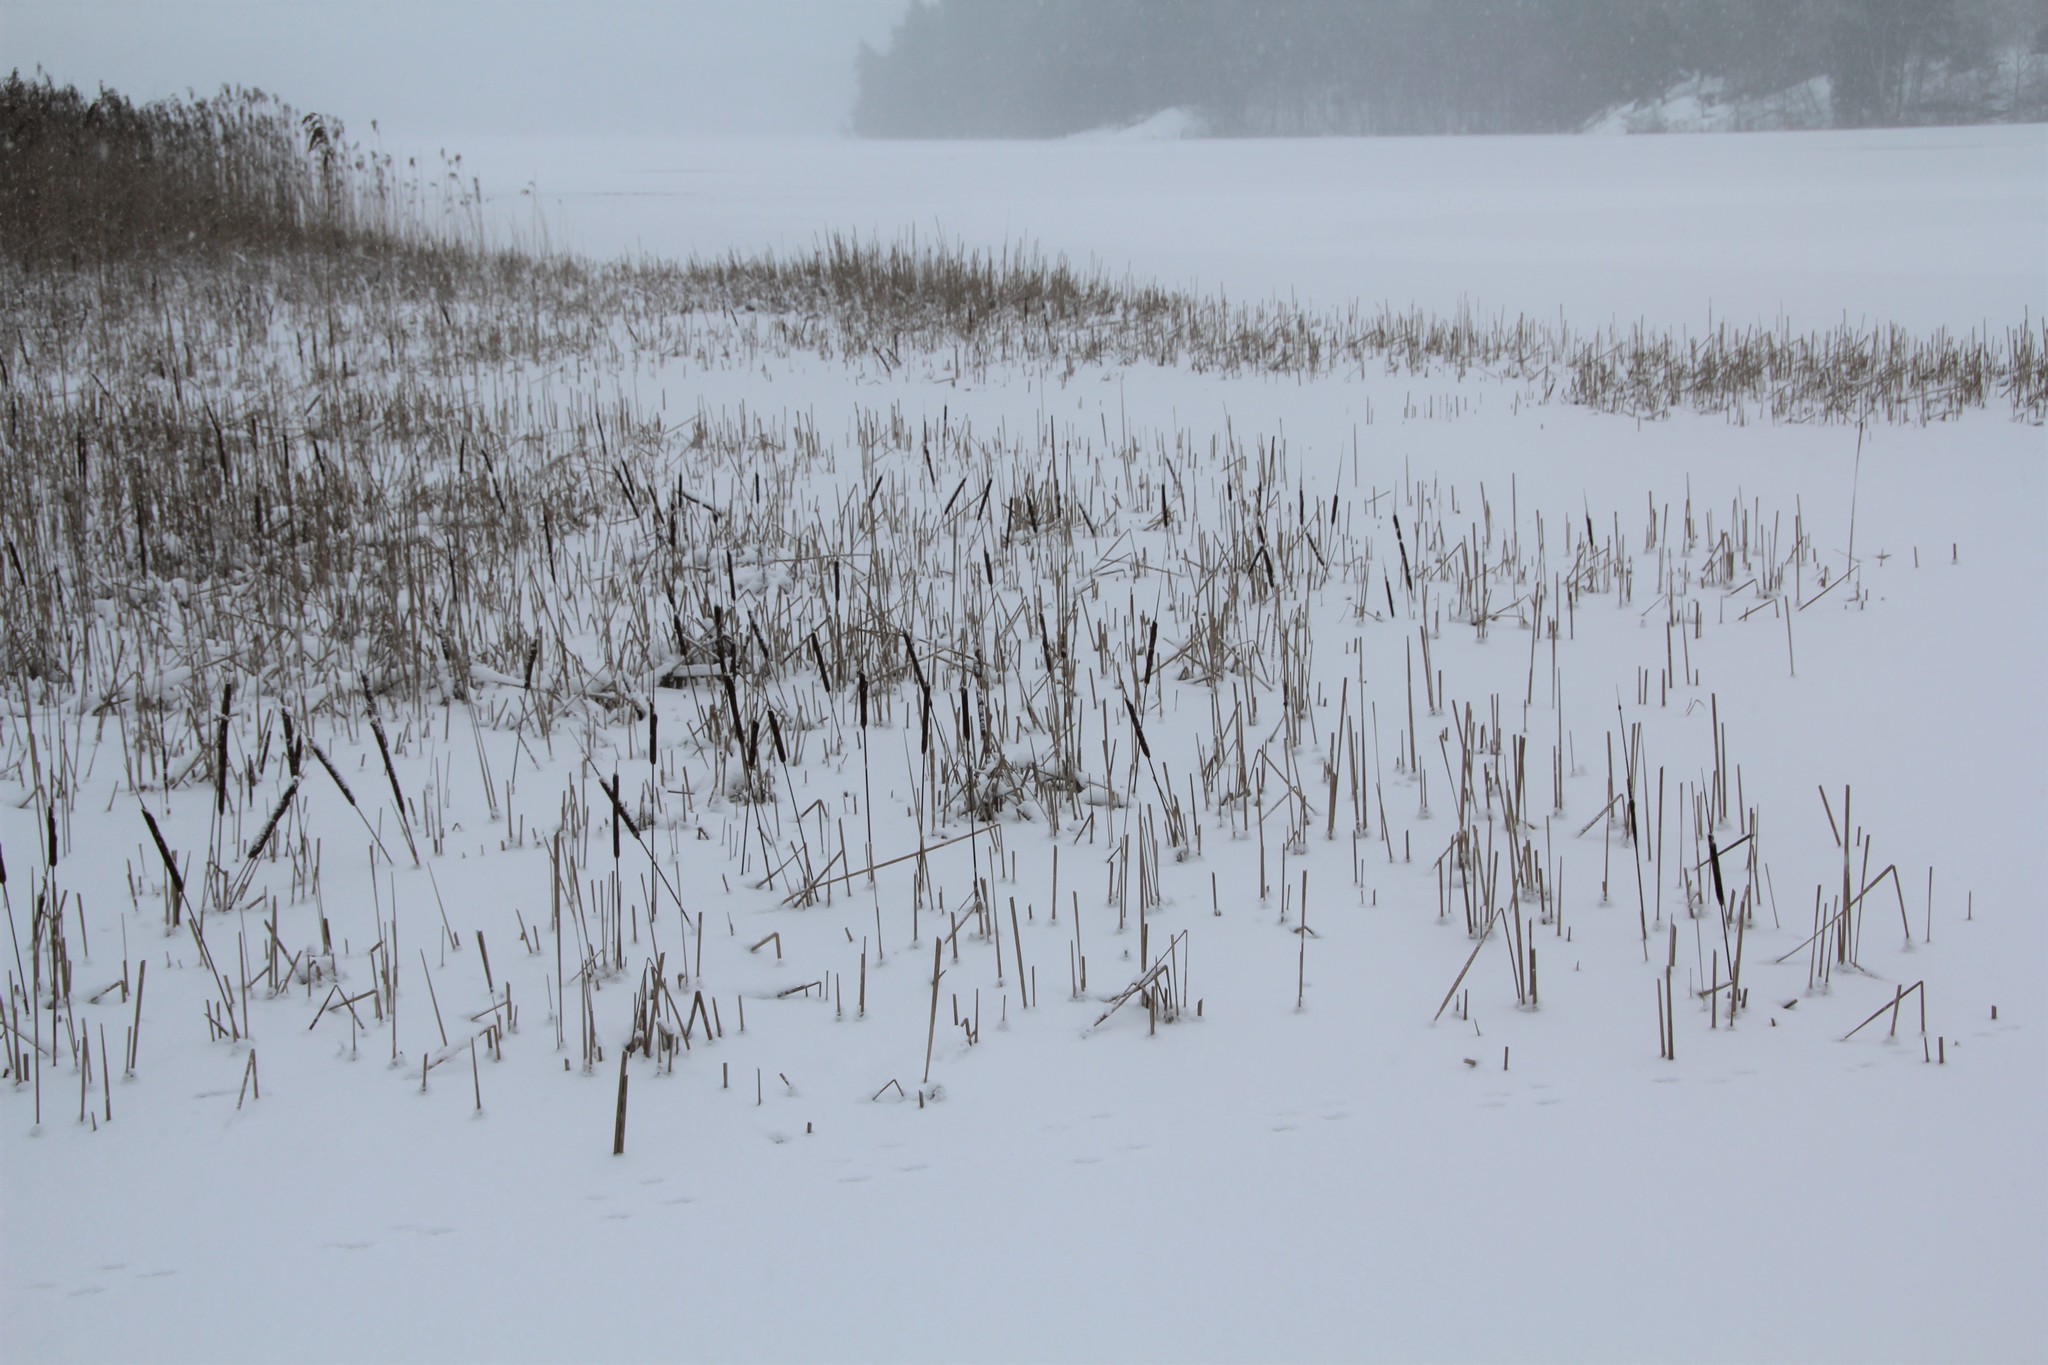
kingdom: Plantae
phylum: Tracheophyta
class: Liliopsida
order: Poales
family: Typhaceae
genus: Typha
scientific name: Typha angustifolia
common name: Lesser bulrush
